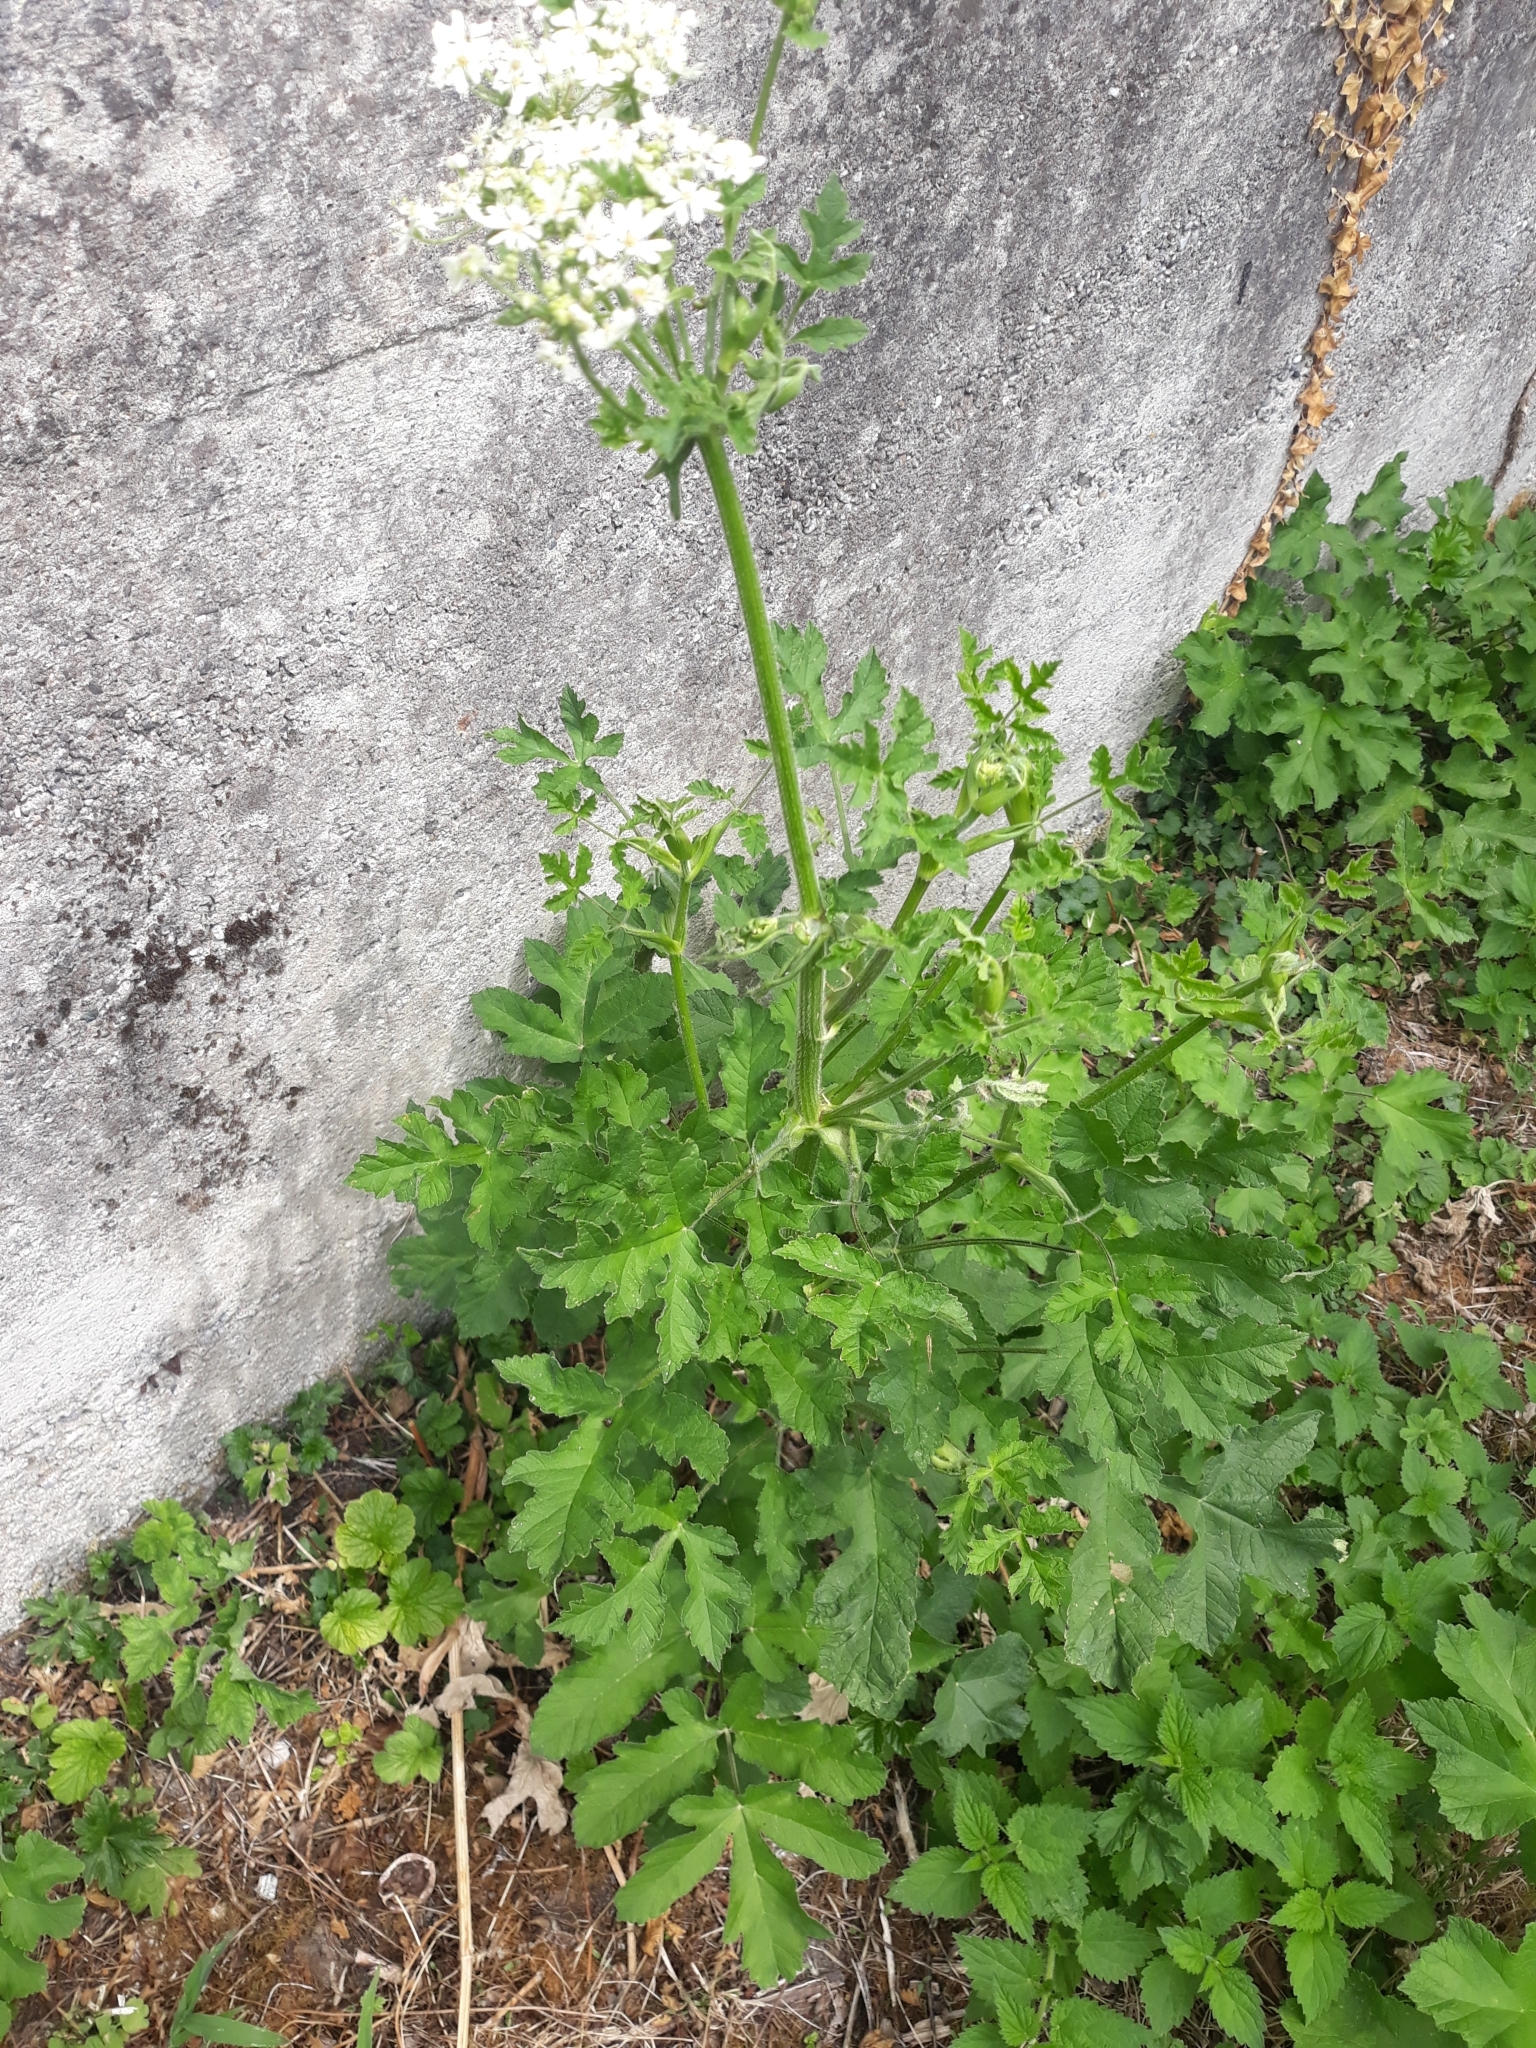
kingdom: Plantae
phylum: Tracheophyta
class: Magnoliopsida
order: Apiales
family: Apiaceae
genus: Heracleum
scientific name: Heracleum sphondylium
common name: Hogweed
